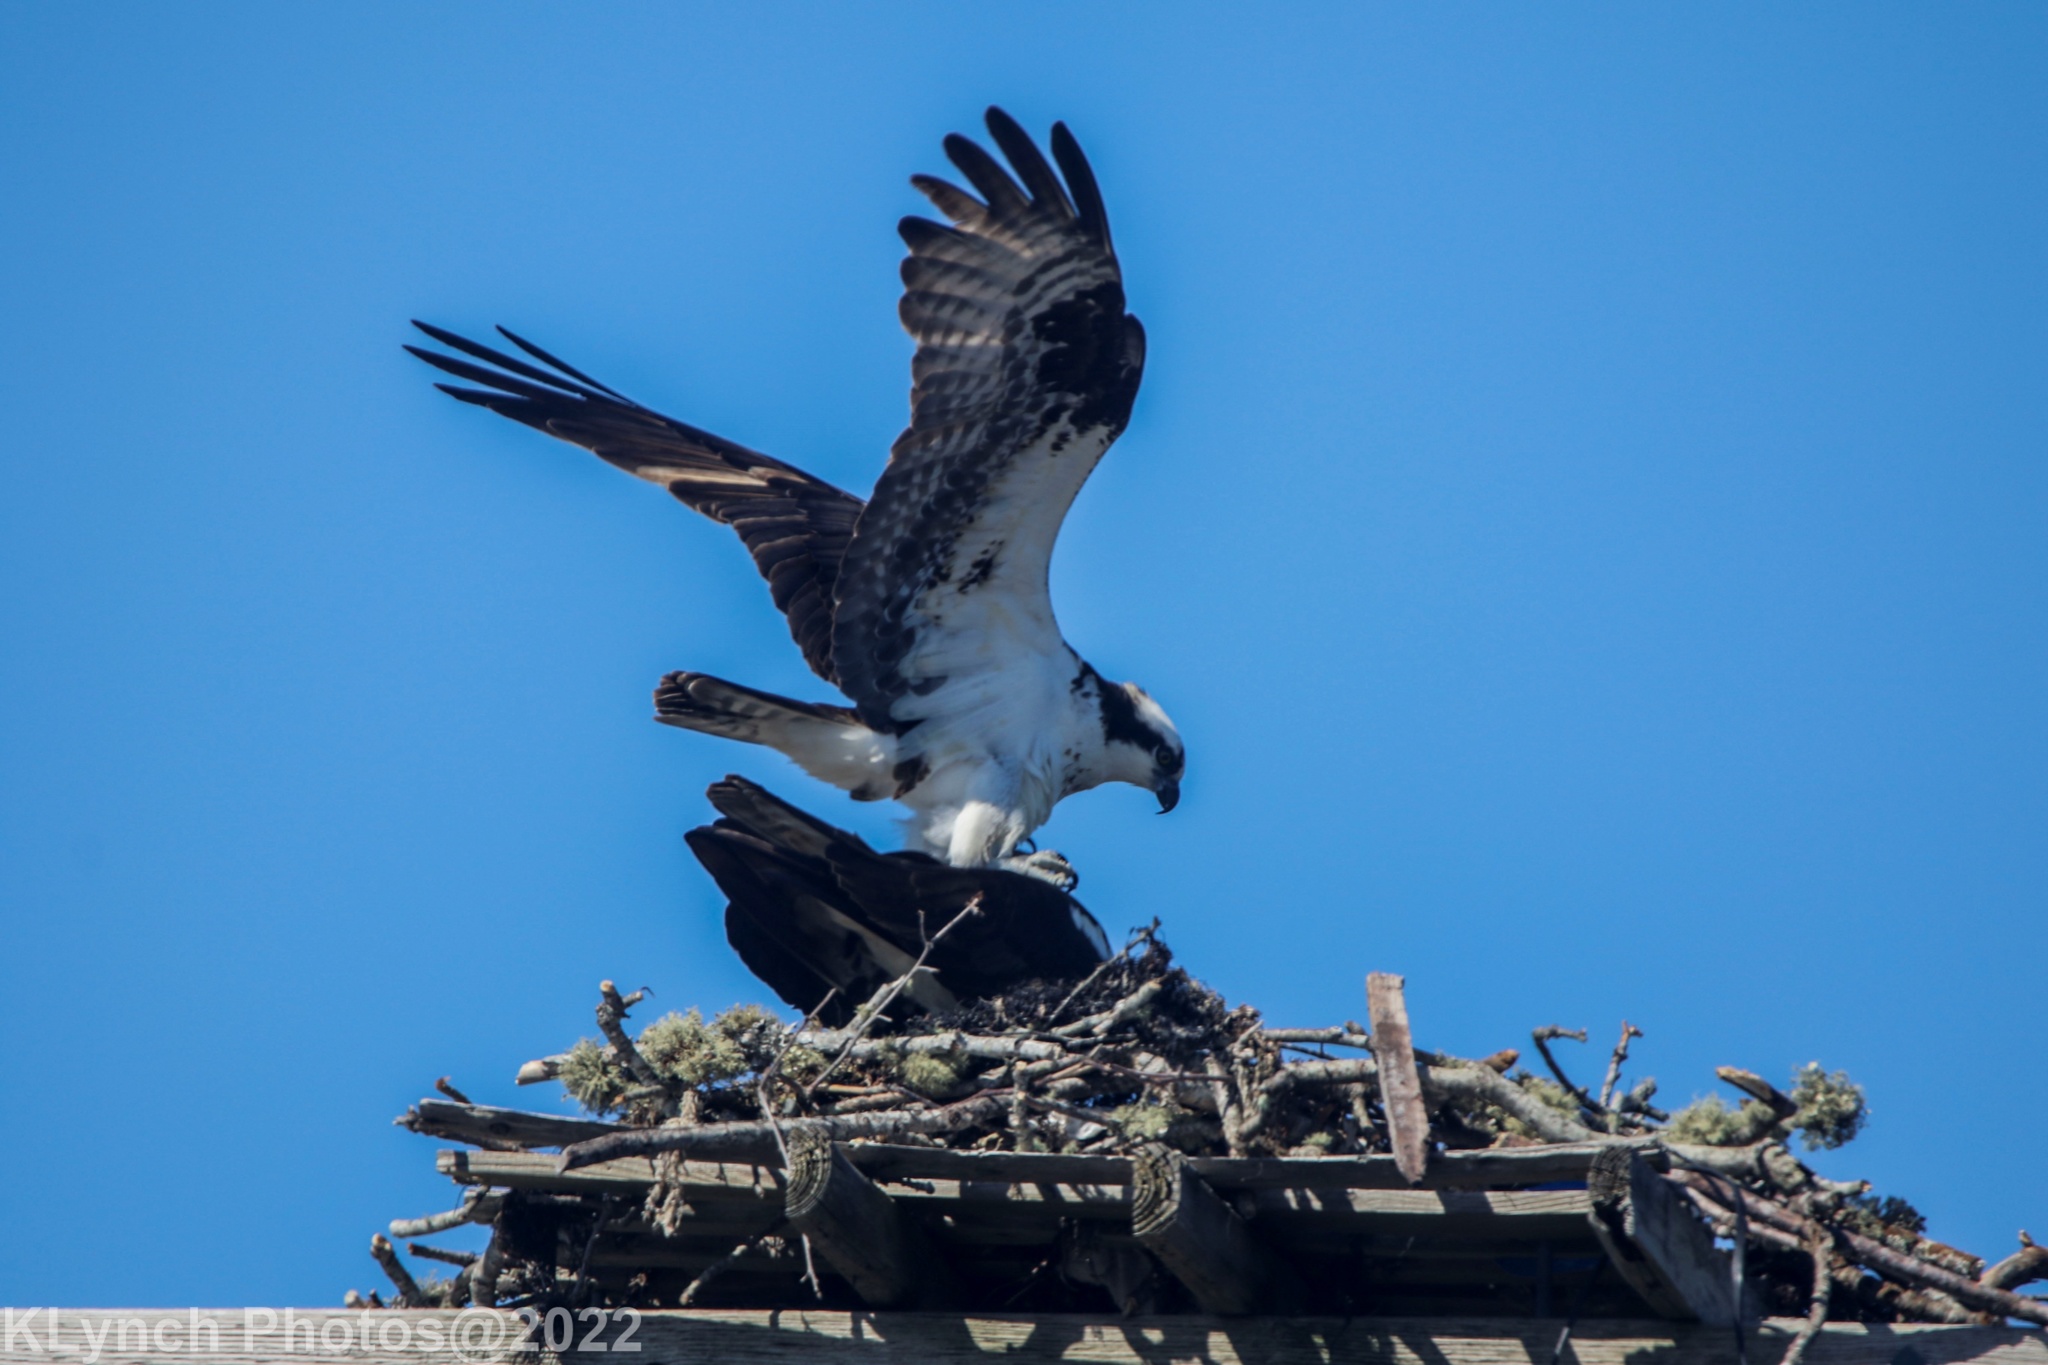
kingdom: Animalia
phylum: Chordata
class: Aves
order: Accipitriformes
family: Pandionidae
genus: Pandion
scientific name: Pandion haliaetus
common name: Osprey
